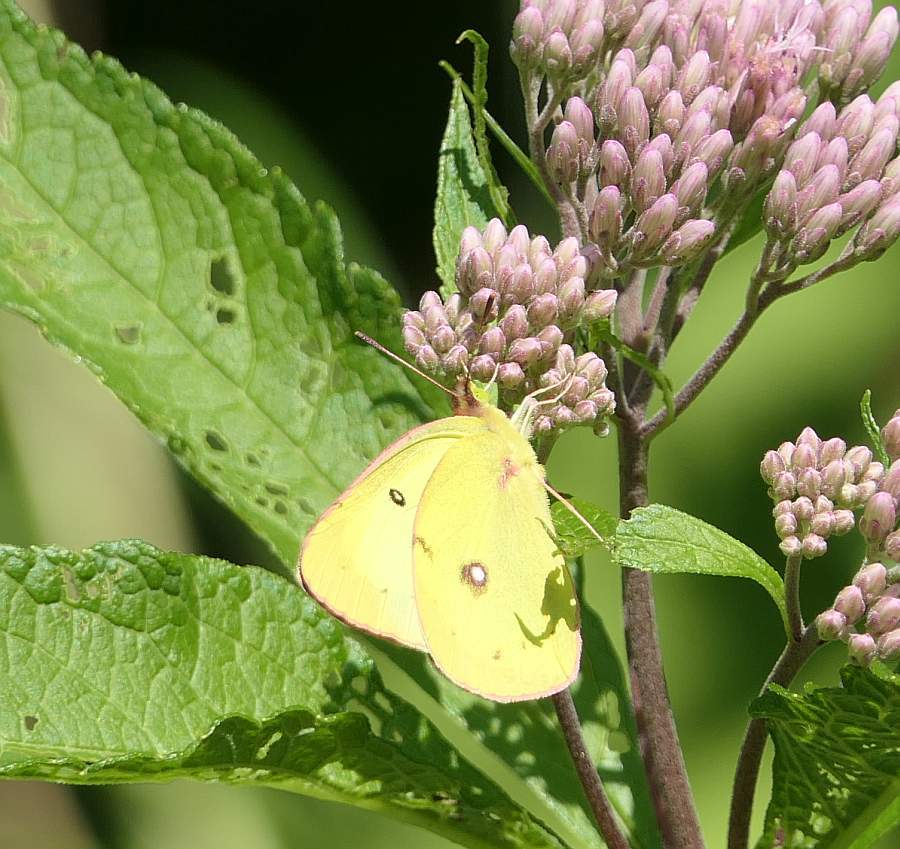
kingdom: Animalia
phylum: Arthropoda
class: Insecta
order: Lepidoptera
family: Pieridae
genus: Colias
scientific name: Colias philodice
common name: Clouded sulphur
